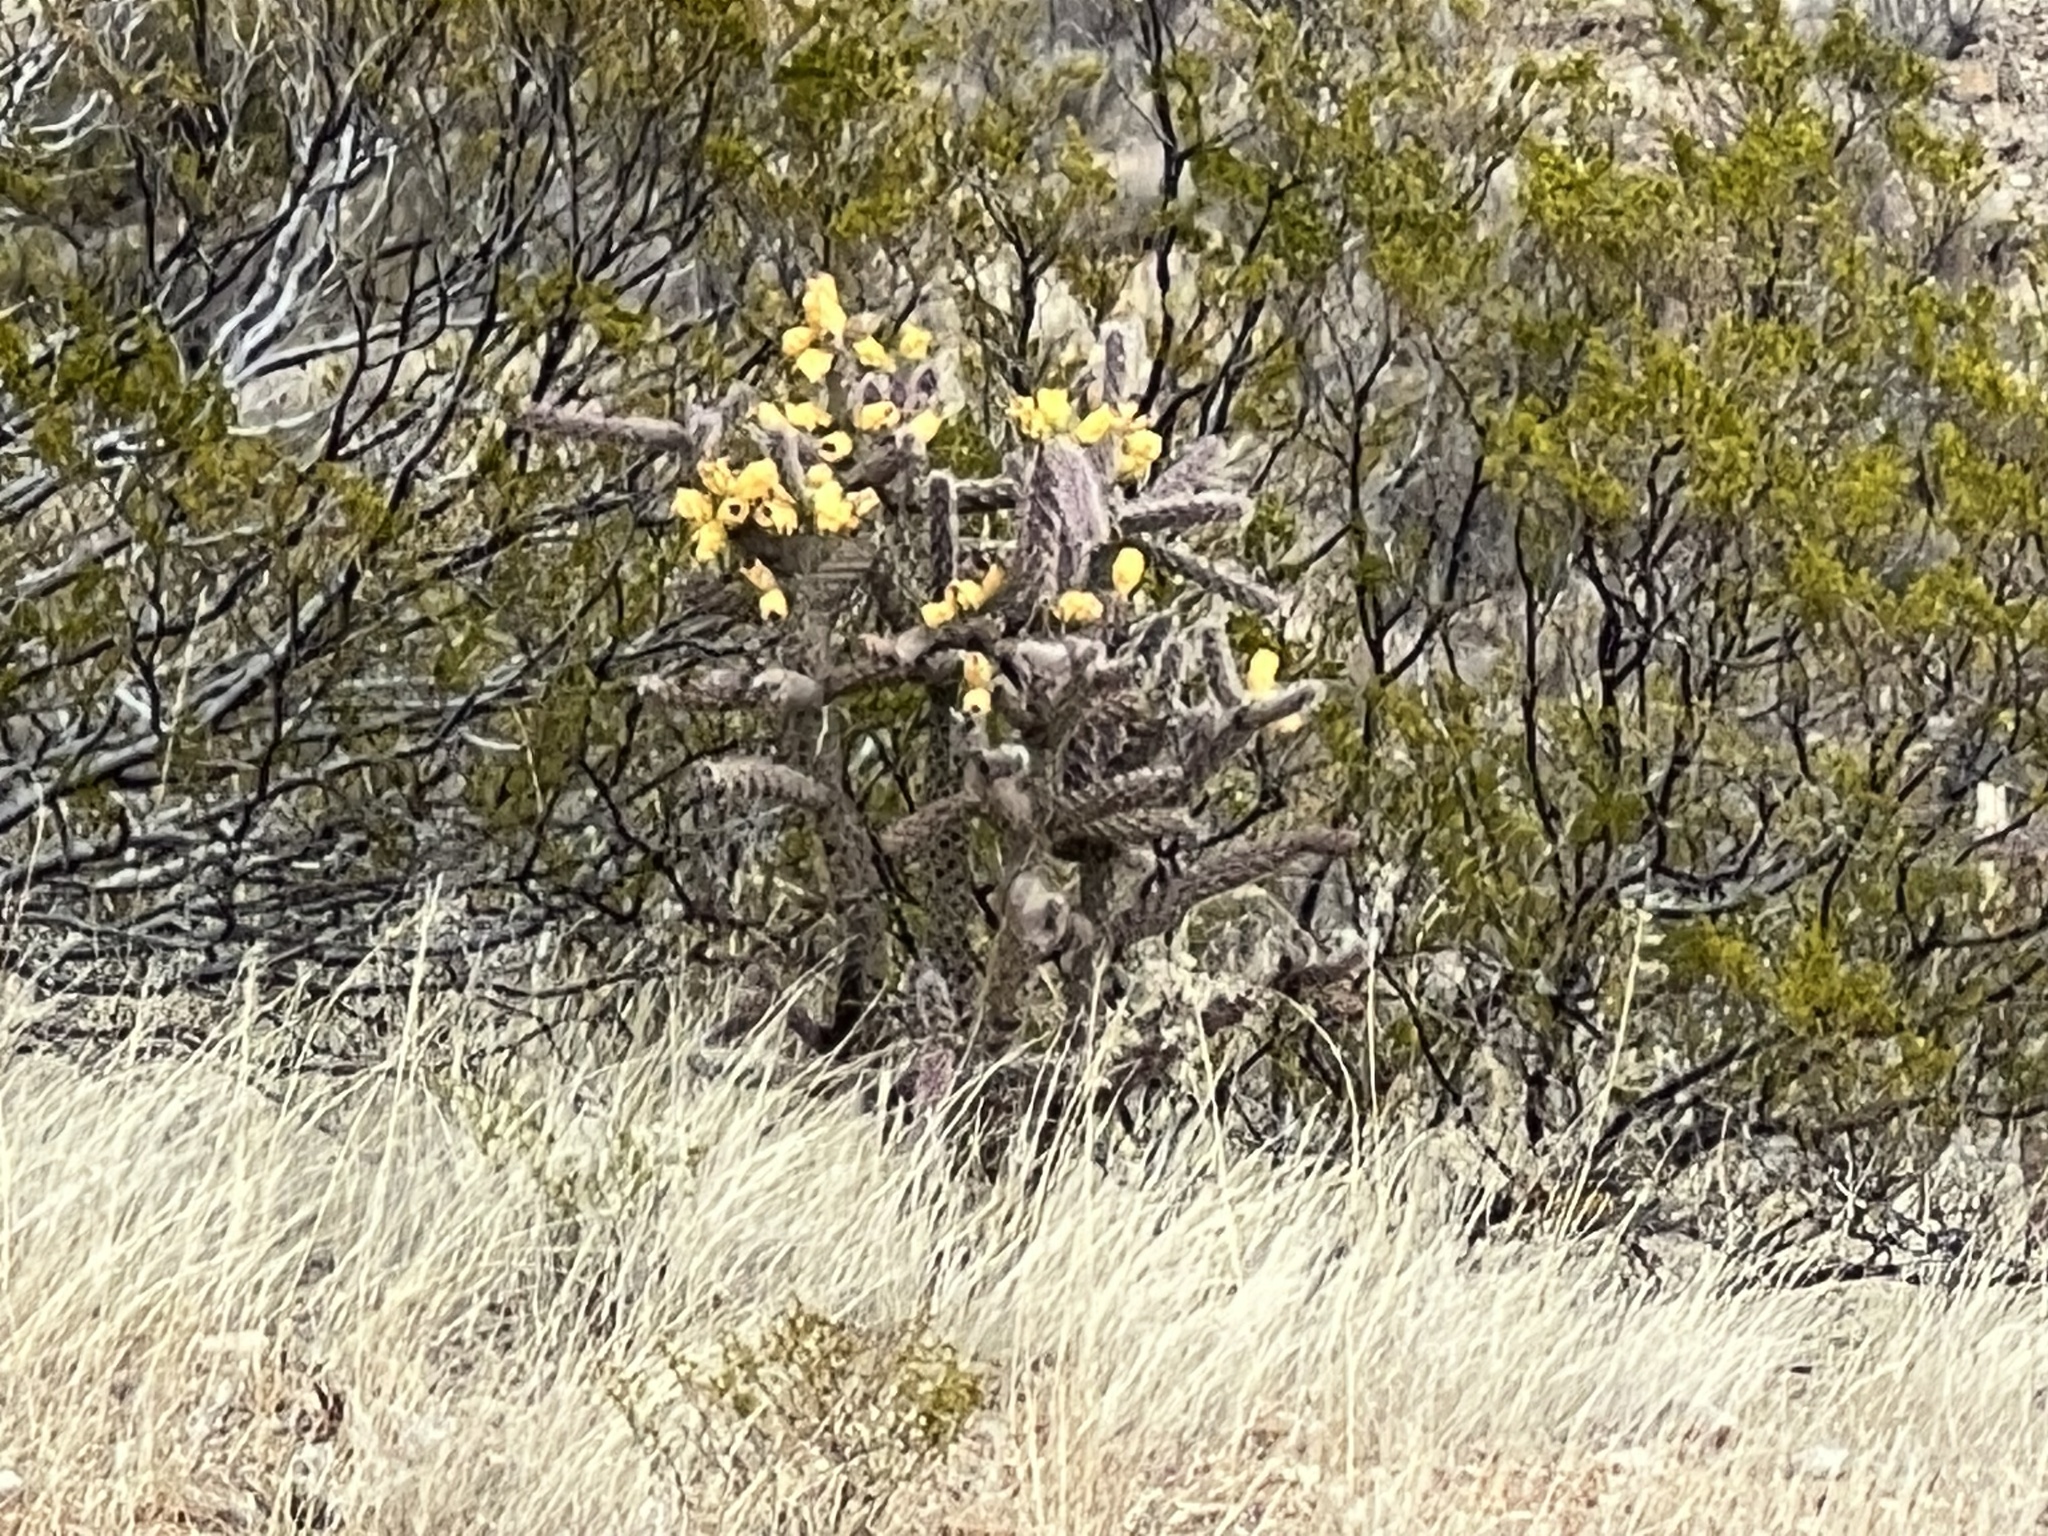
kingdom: Plantae
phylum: Tracheophyta
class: Magnoliopsida
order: Caryophyllales
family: Cactaceae
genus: Cylindropuntia
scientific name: Cylindropuntia imbricata
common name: Candelabrum cactus
